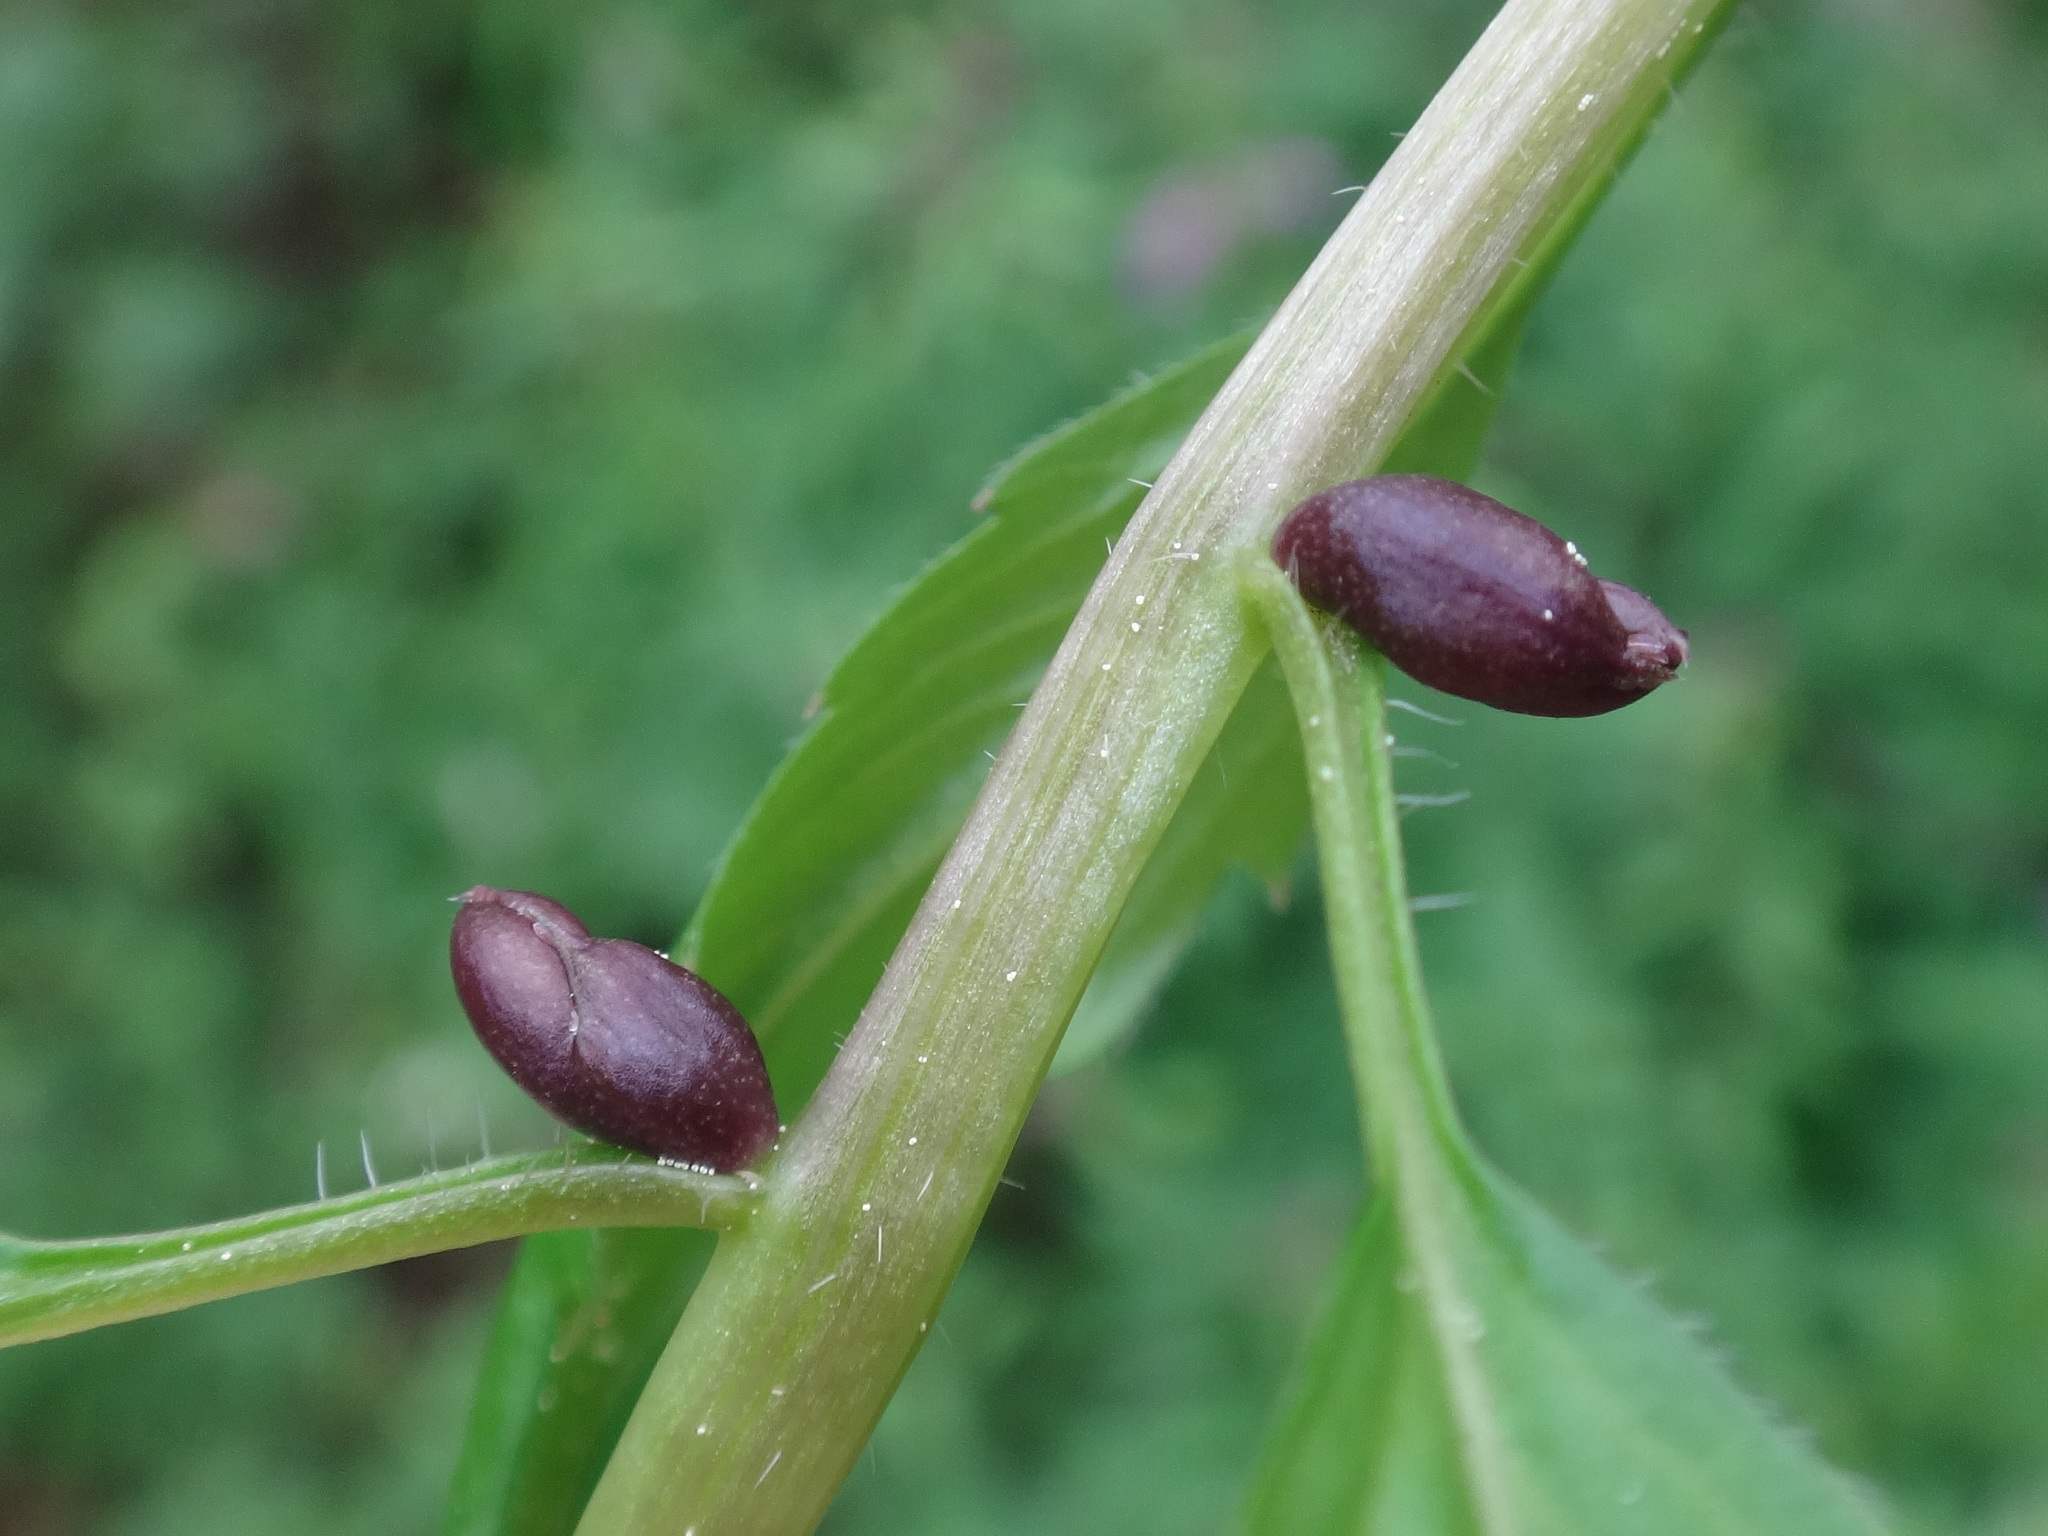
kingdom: Plantae
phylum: Tracheophyta
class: Magnoliopsida
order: Brassicales
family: Brassicaceae
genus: Cardamine
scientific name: Cardamine bulbifera
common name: Coralroot bittercress
